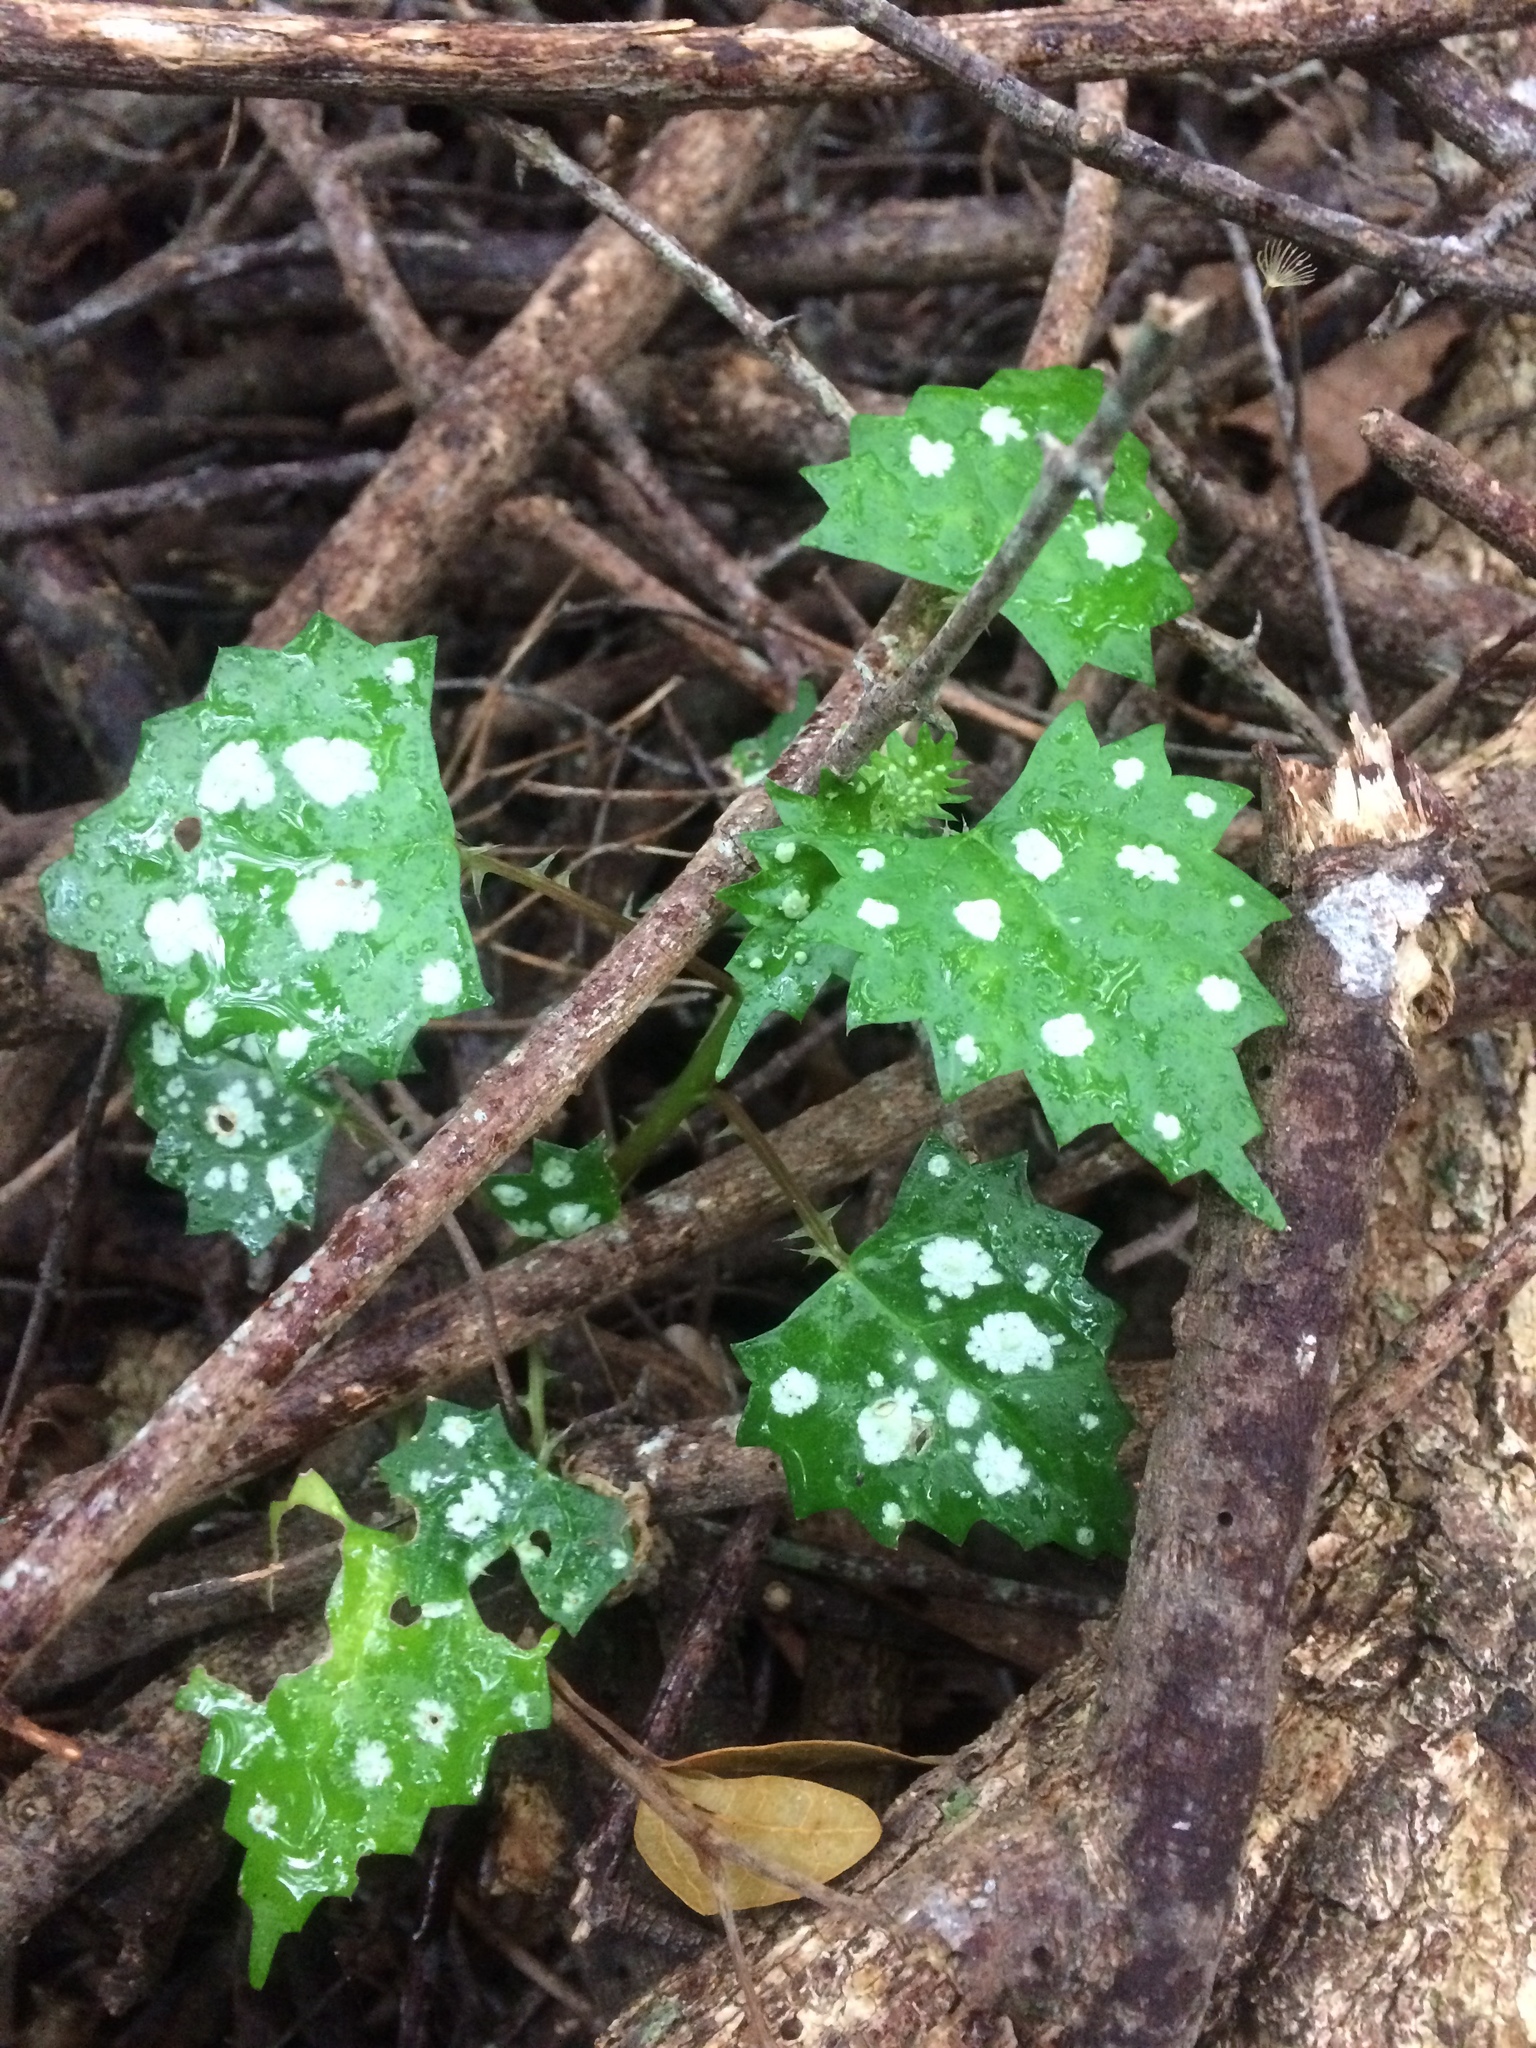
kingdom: Plantae
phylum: Tracheophyta
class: Magnoliopsida
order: Rosales
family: Urticaceae
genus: Laportea
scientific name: Laportea grossa
